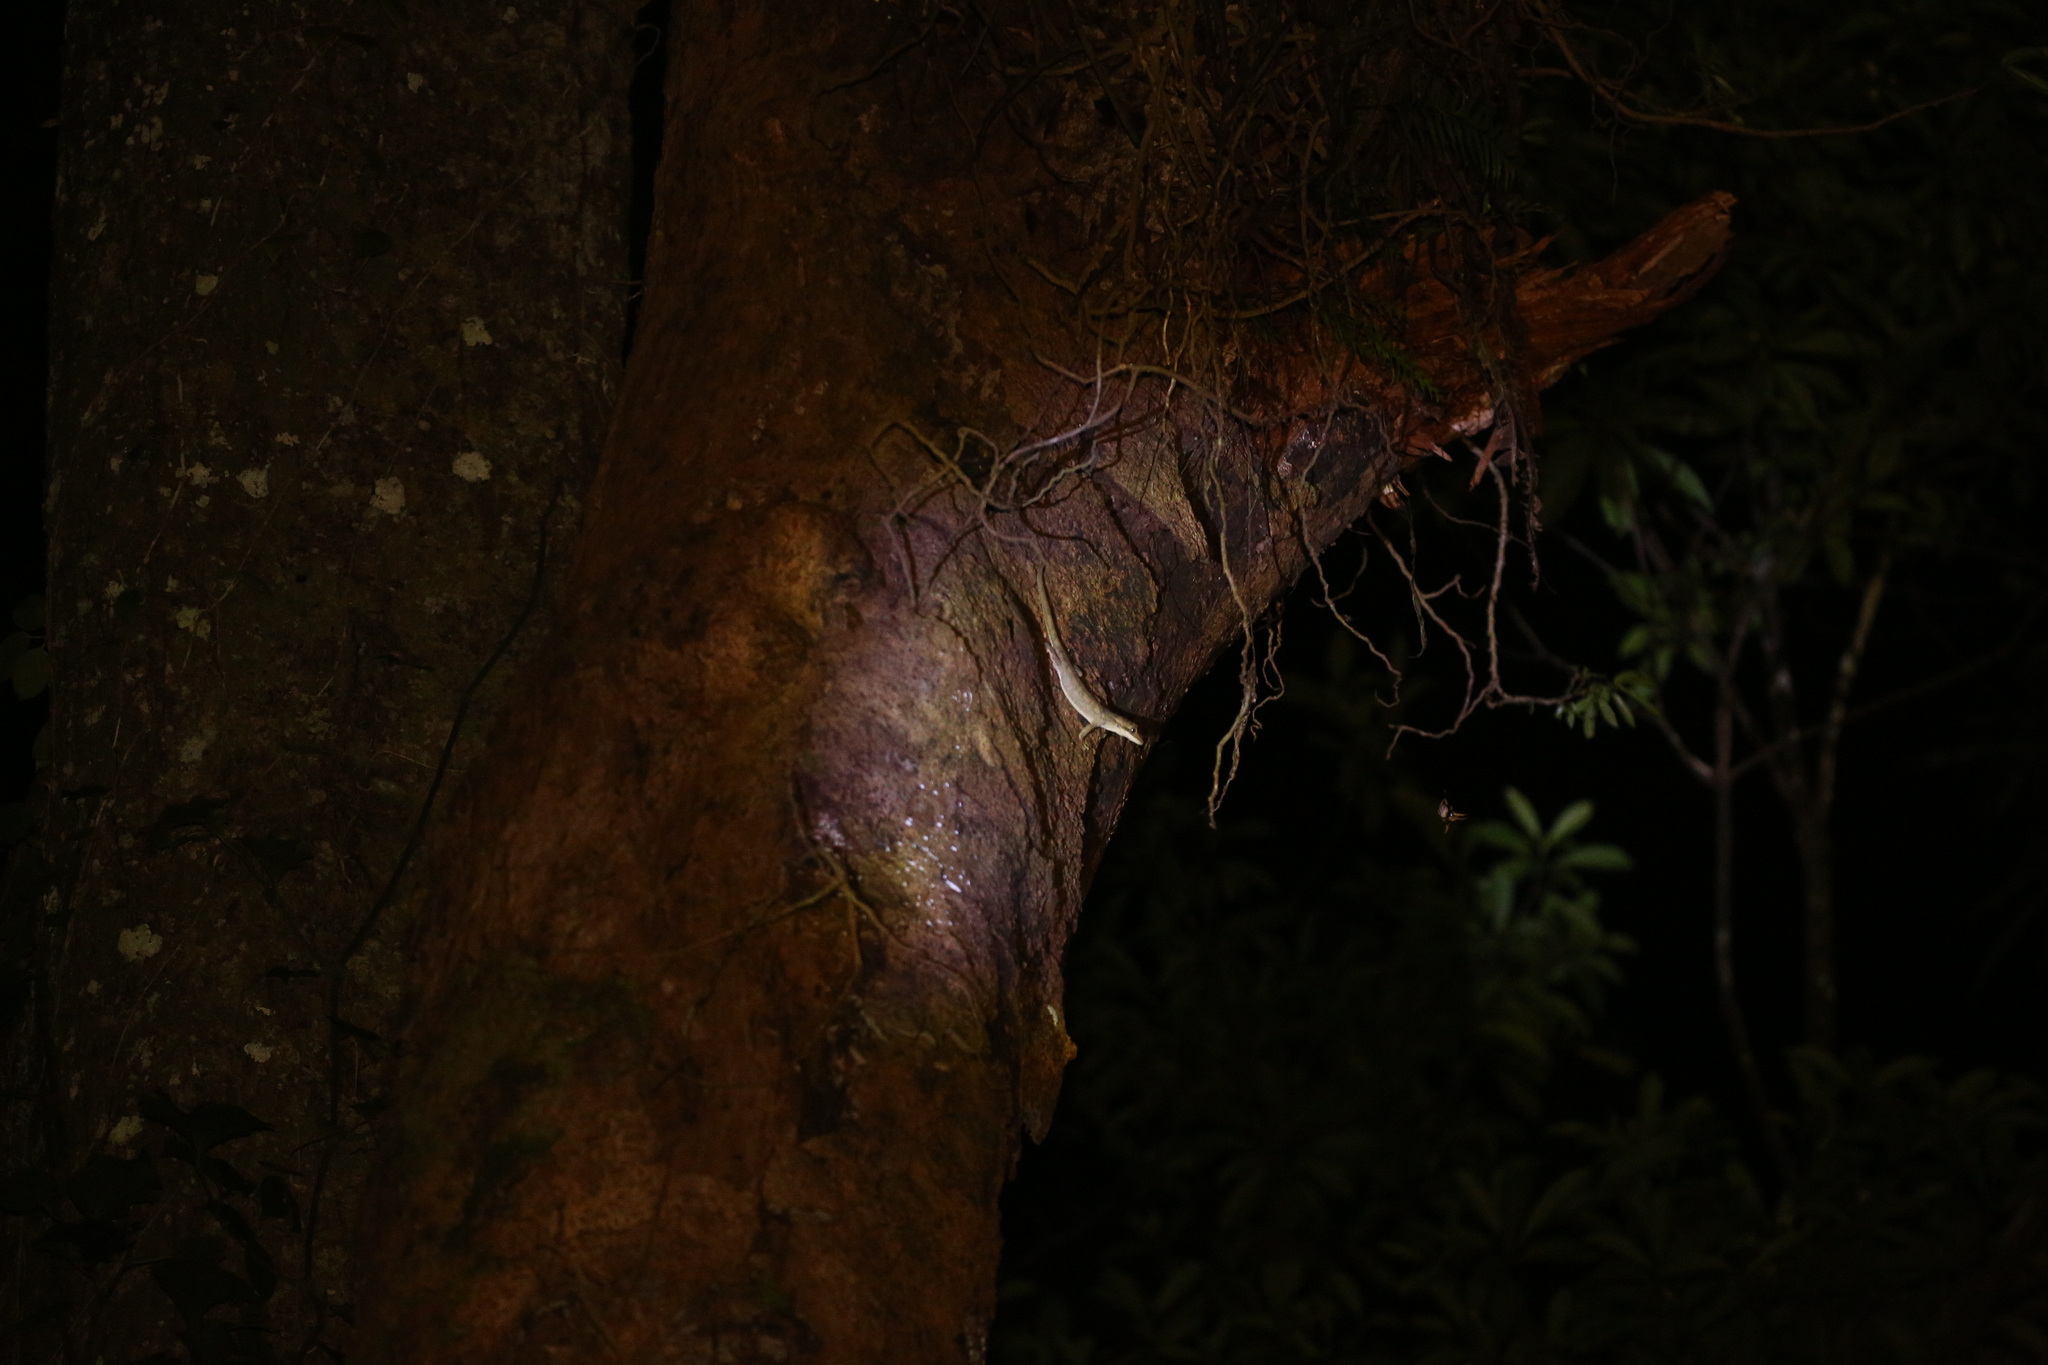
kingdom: Animalia
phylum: Chordata
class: Squamata
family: Diplodactylidae
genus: Correlophus
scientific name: Correlophus sarasinorum
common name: Roux's giant gecko
